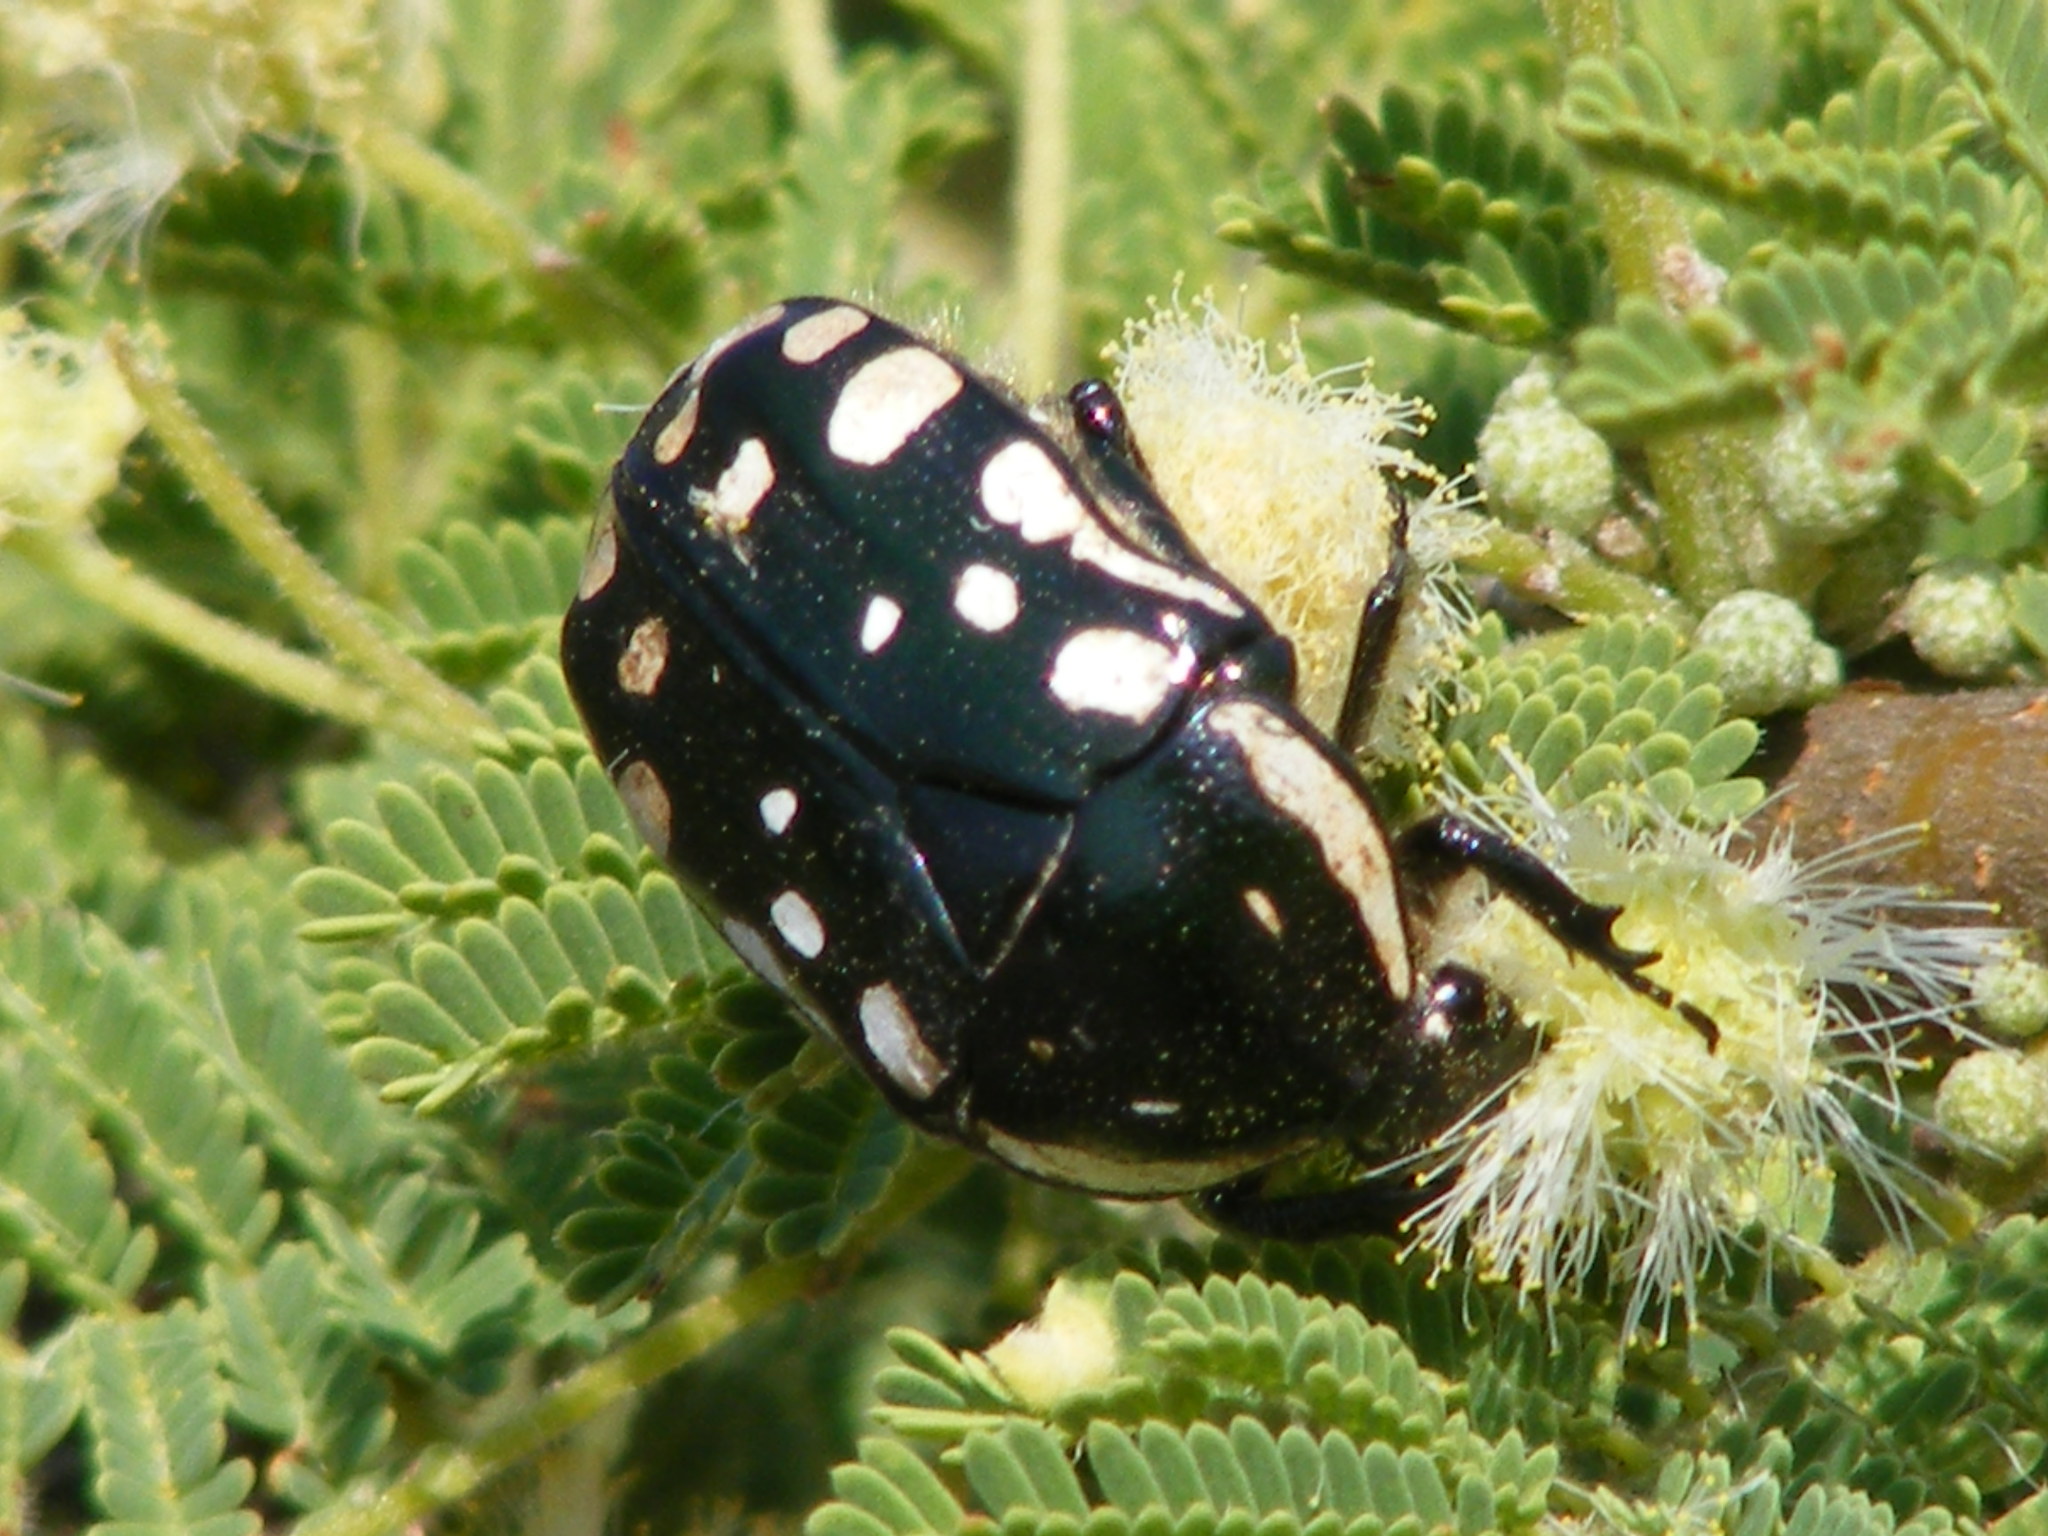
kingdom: Animalia
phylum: Arthropoda
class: Insecta
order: Coleoptera
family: Scarabaeidae
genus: Rhabdotis
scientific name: Rhabdotis albinigra
